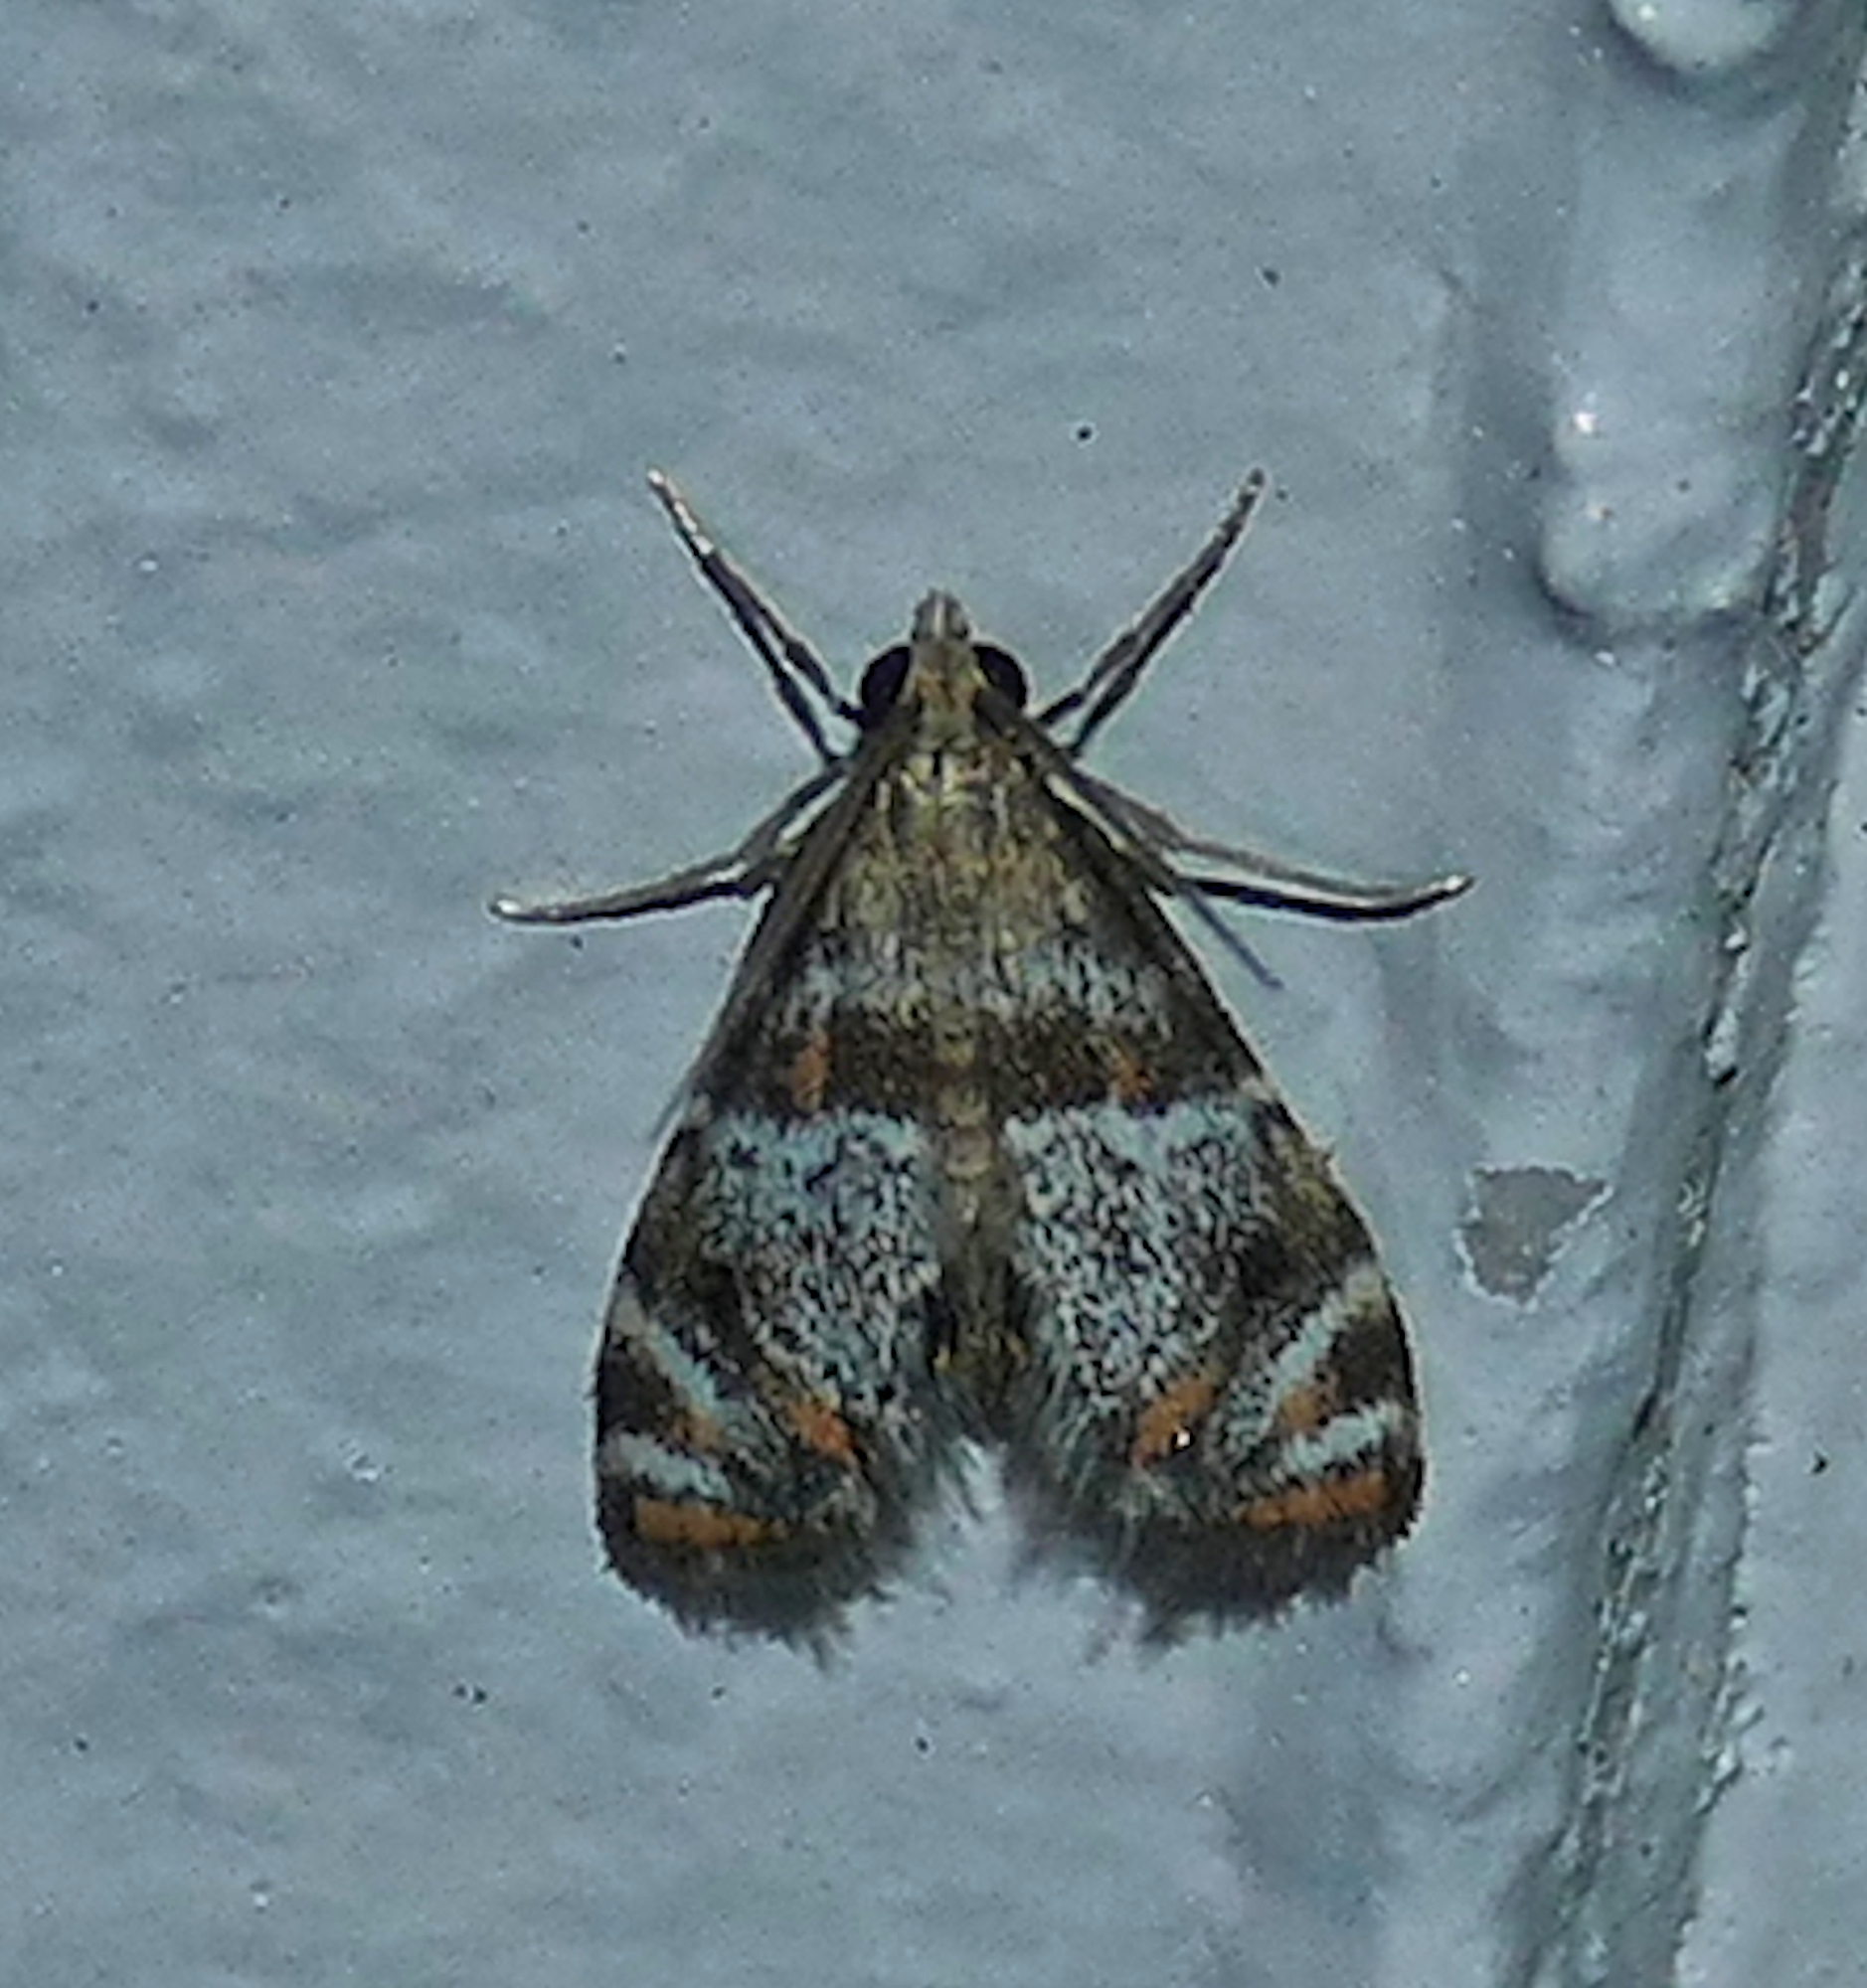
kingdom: Animalia
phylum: Arthropoda
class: Insecta
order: Lepidoptera
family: Crambidae
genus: Petrophila
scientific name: Petrophila jaliscalis
